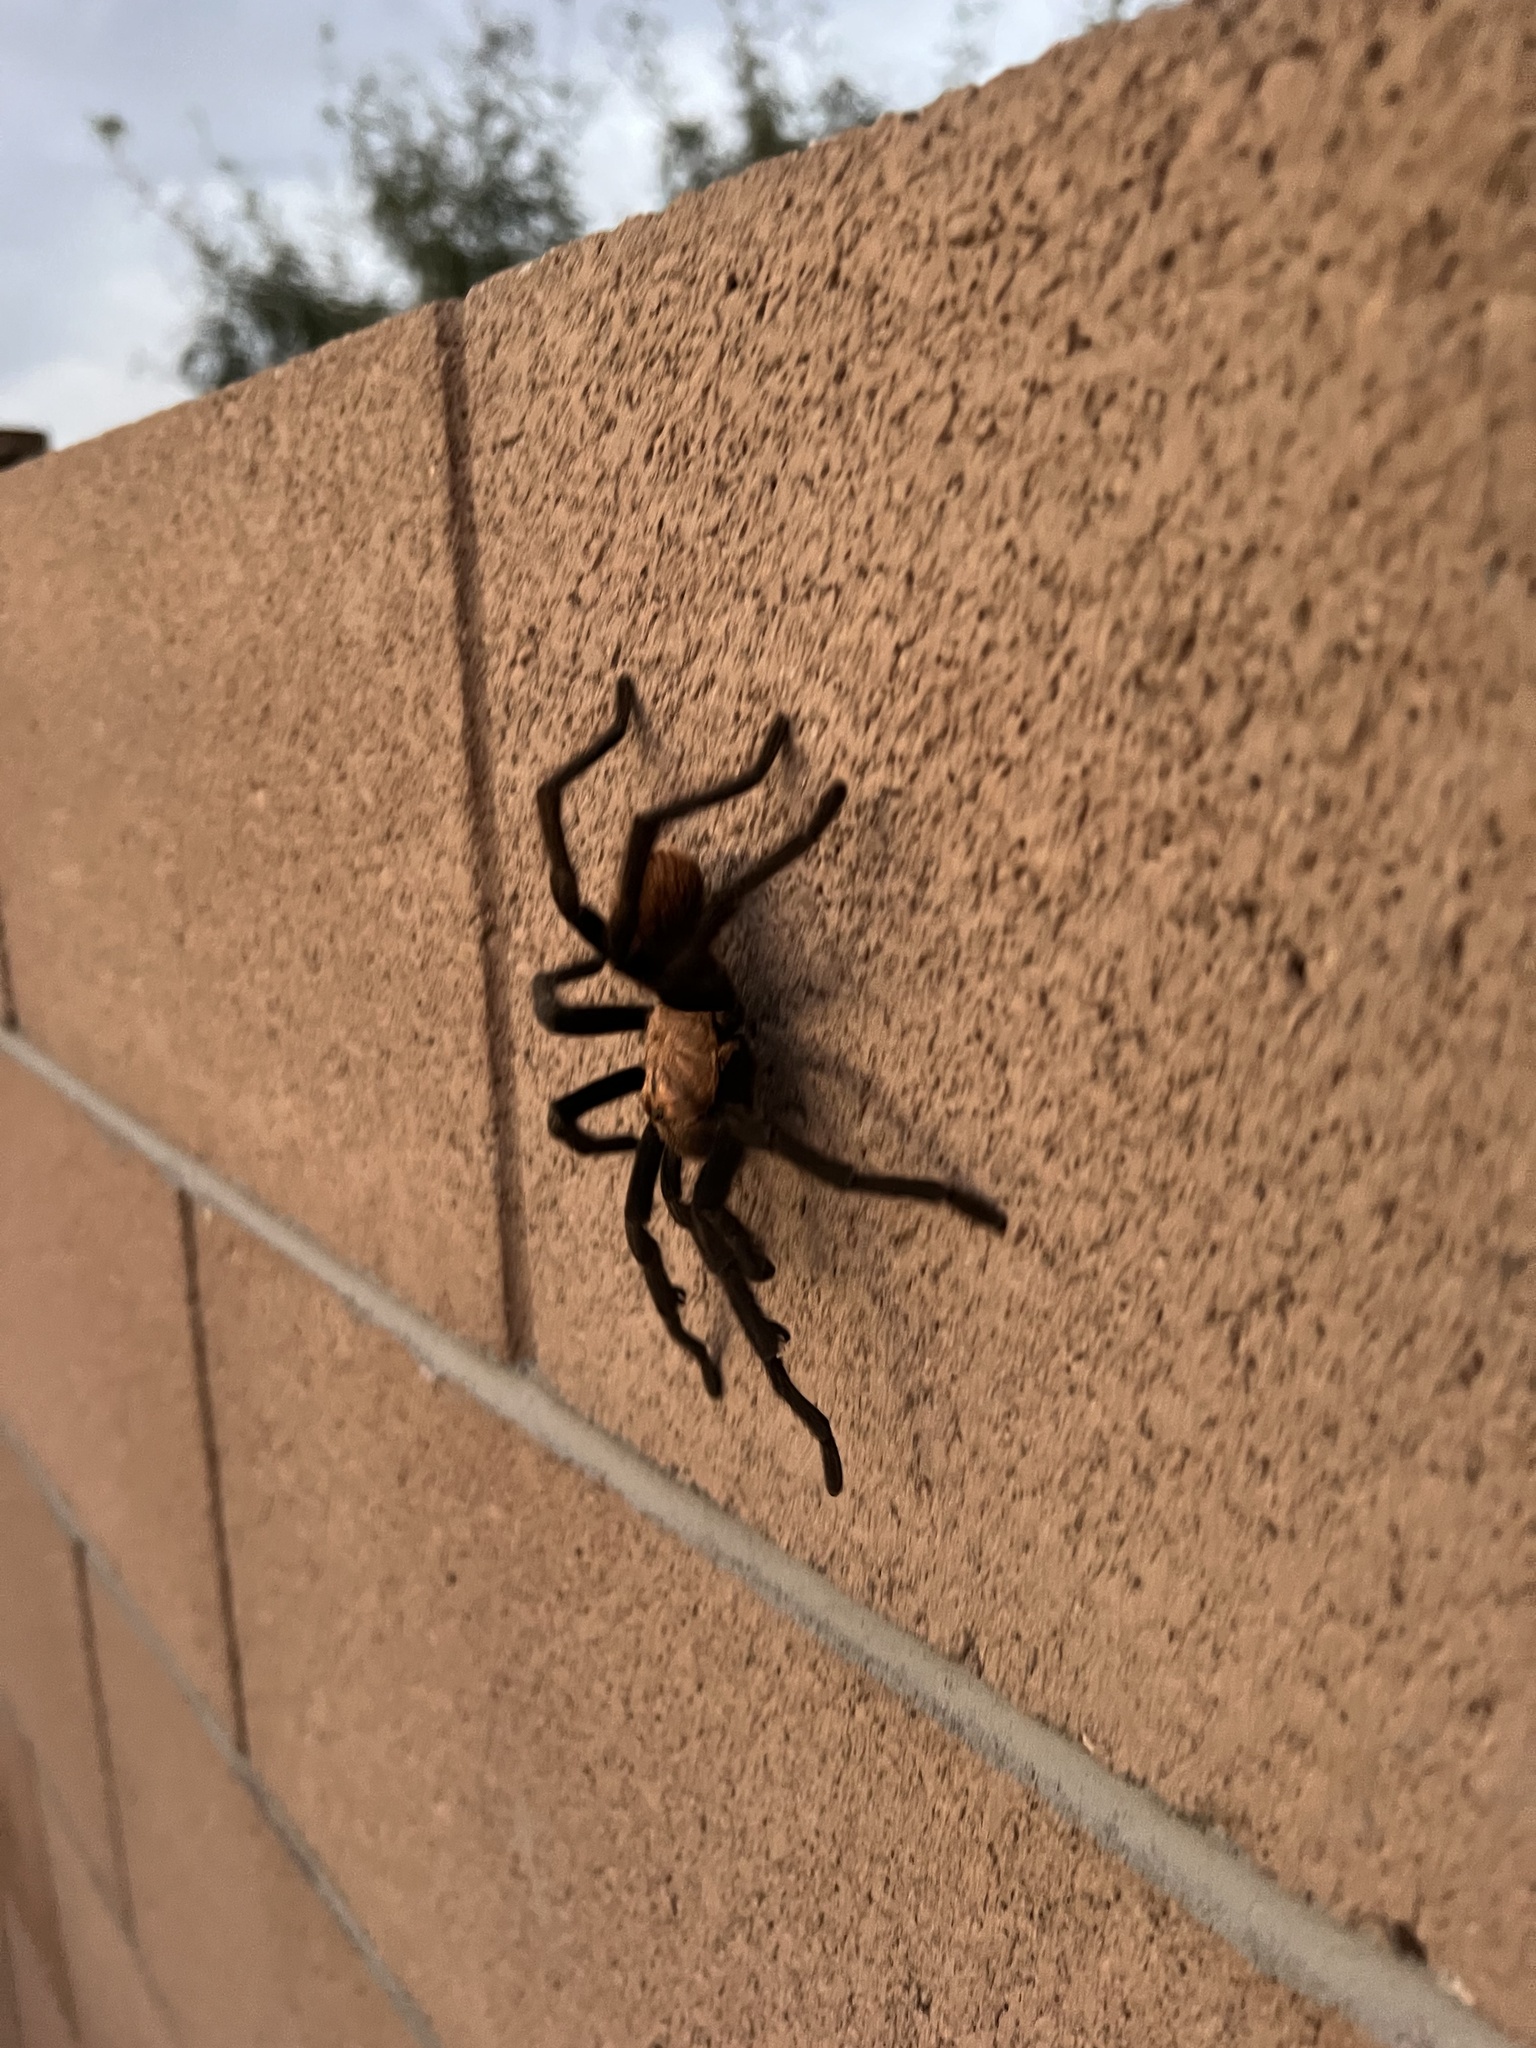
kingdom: Animalia
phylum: Arthropoda
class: Arachnida
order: Araneae
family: Theraphosidae
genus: Aphonopelma
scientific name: Aphonopelma chalcodes
